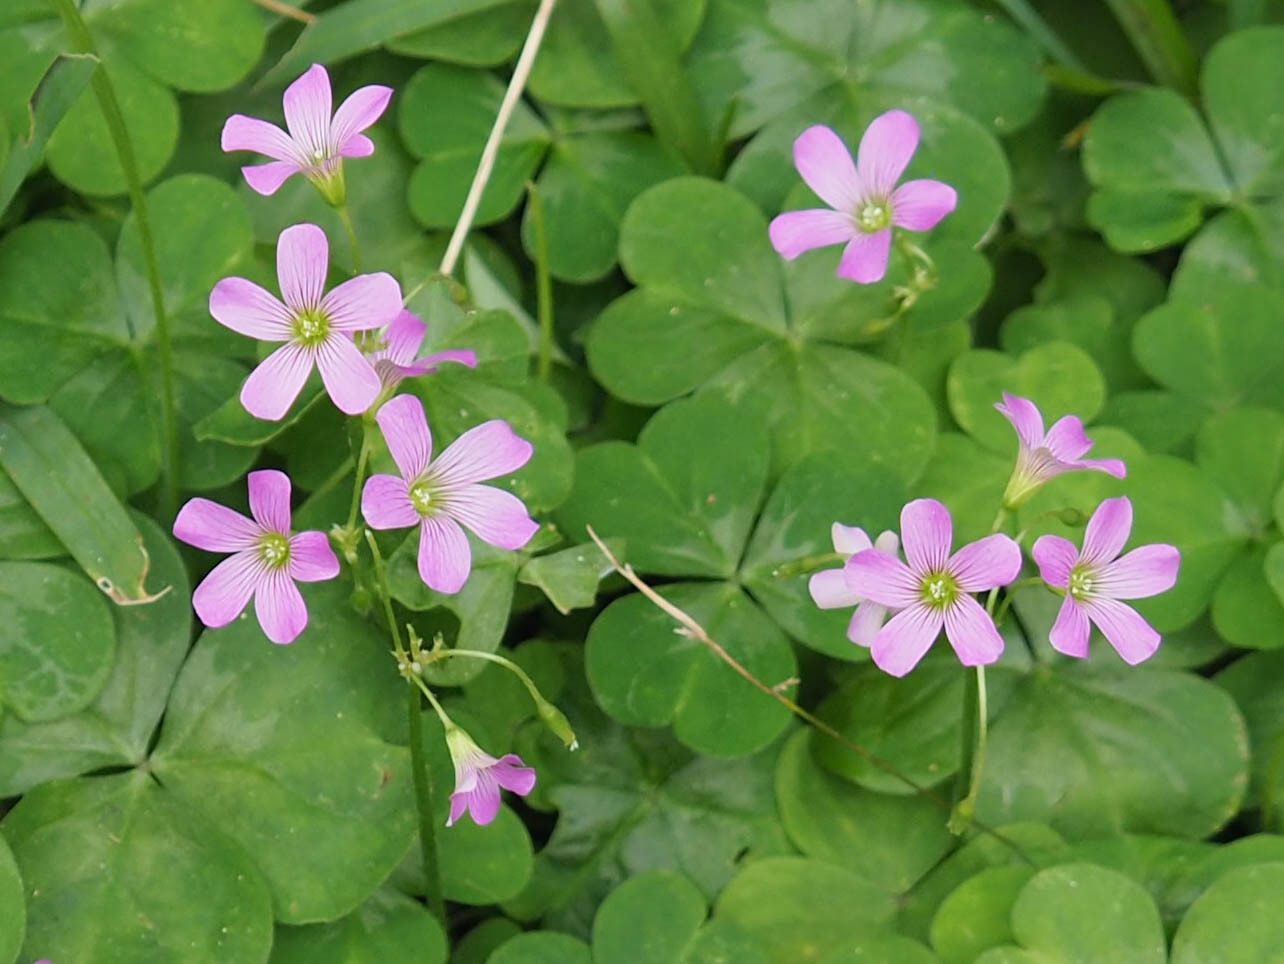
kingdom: Plantae
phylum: Tracheophyta
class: Magnoliopsida
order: Oxalidales
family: Oxalidaceae
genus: Oxalis
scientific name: Oxalis debilis
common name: Large-flowered pink-sorrel
